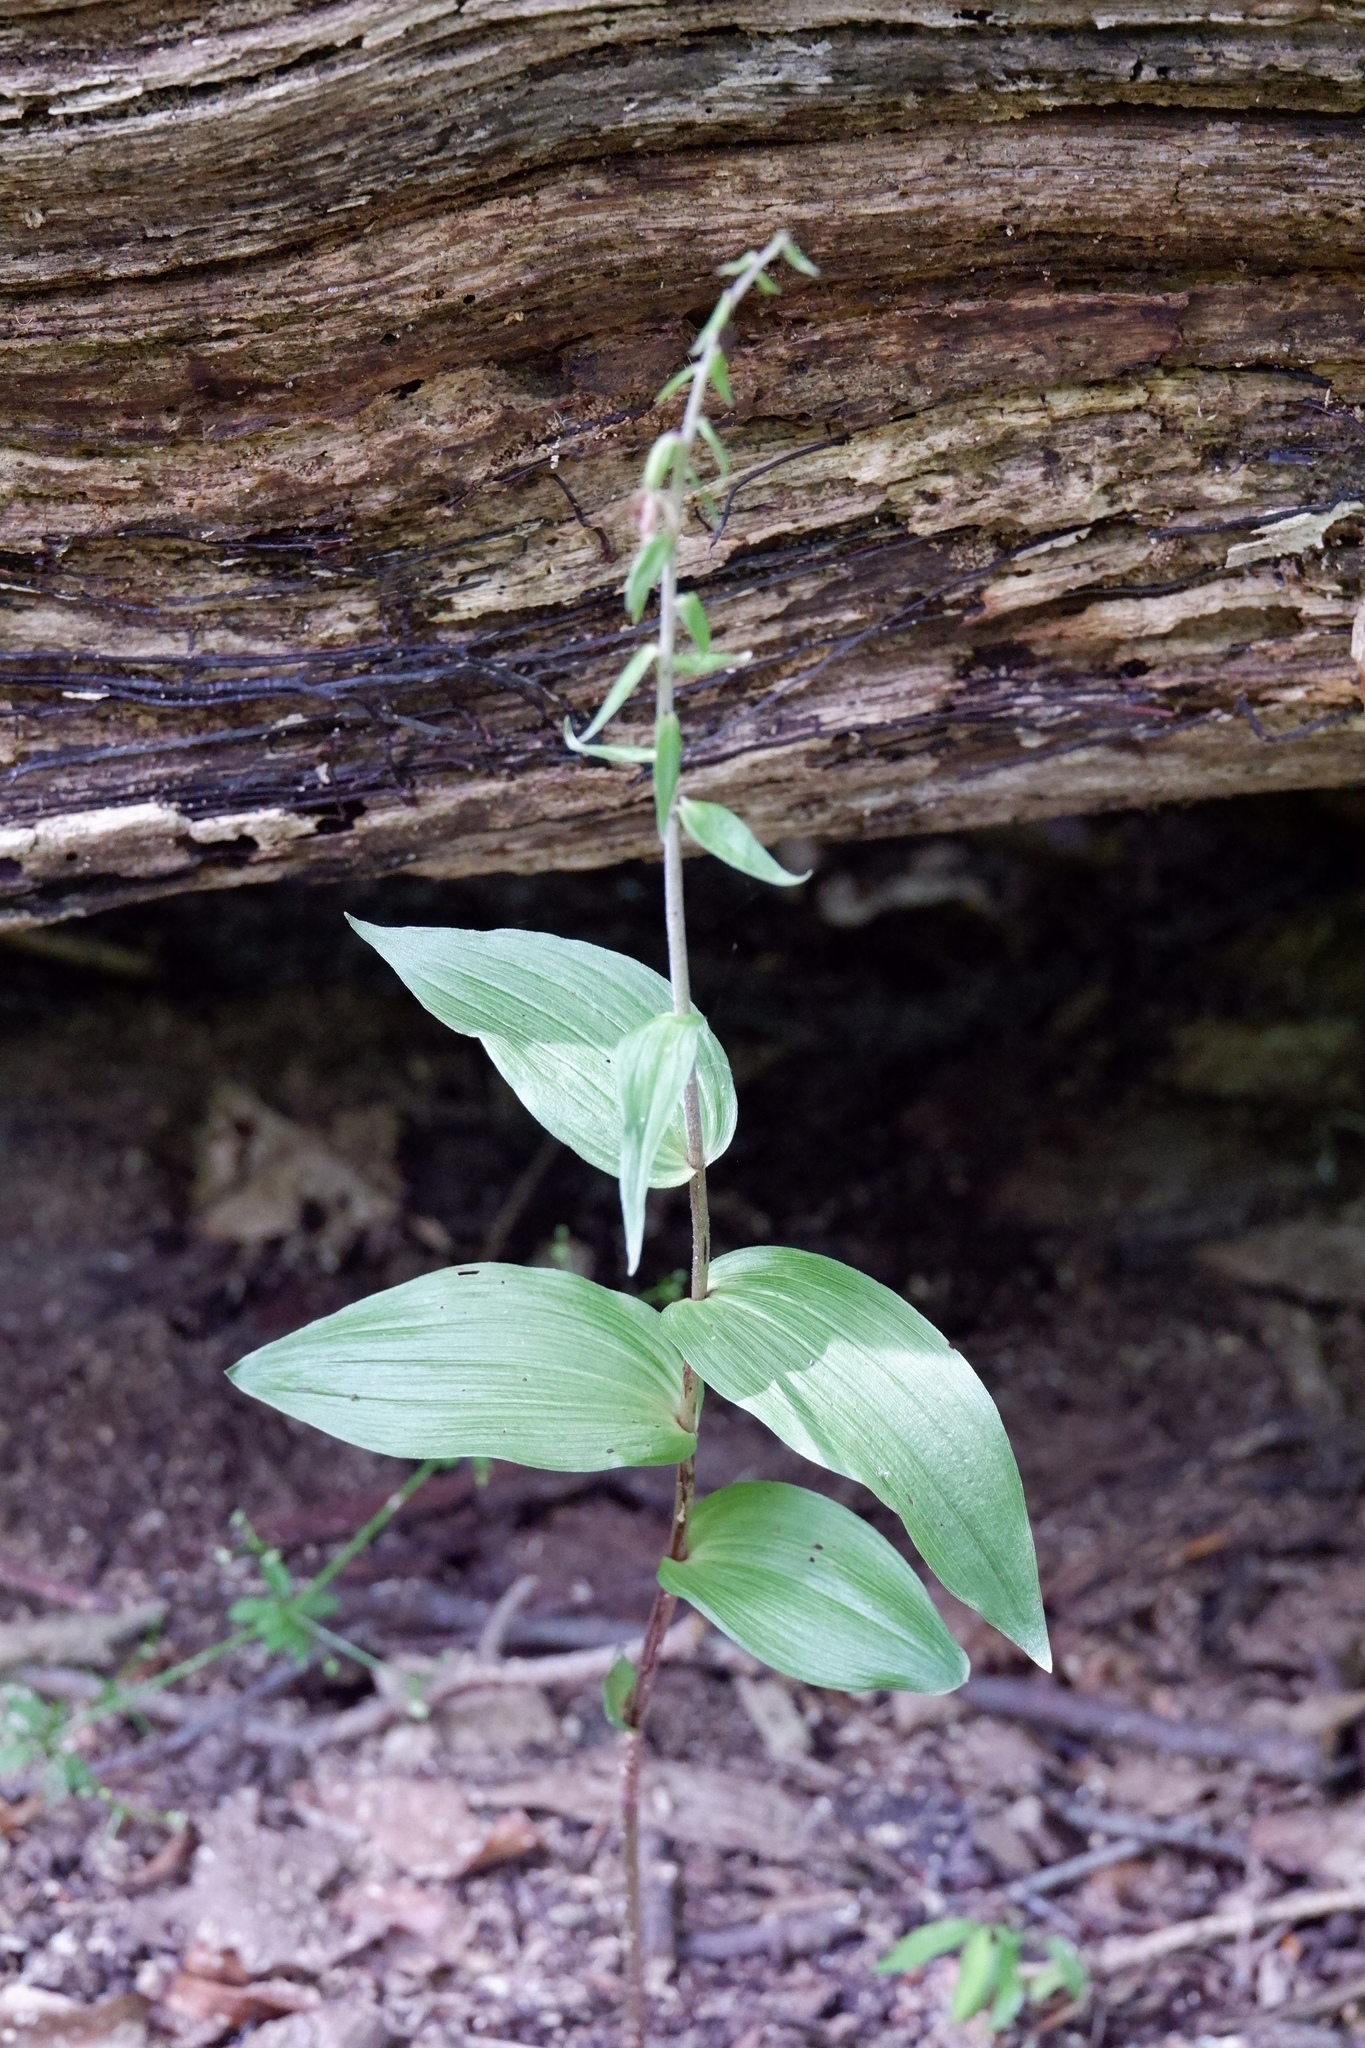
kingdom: Plantae
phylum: Tracheophyta
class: Liliopsida
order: Asparagales
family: Orchidaceae
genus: Epipactis
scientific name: Epipactis helleborine
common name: Broad-leaved helleborine
